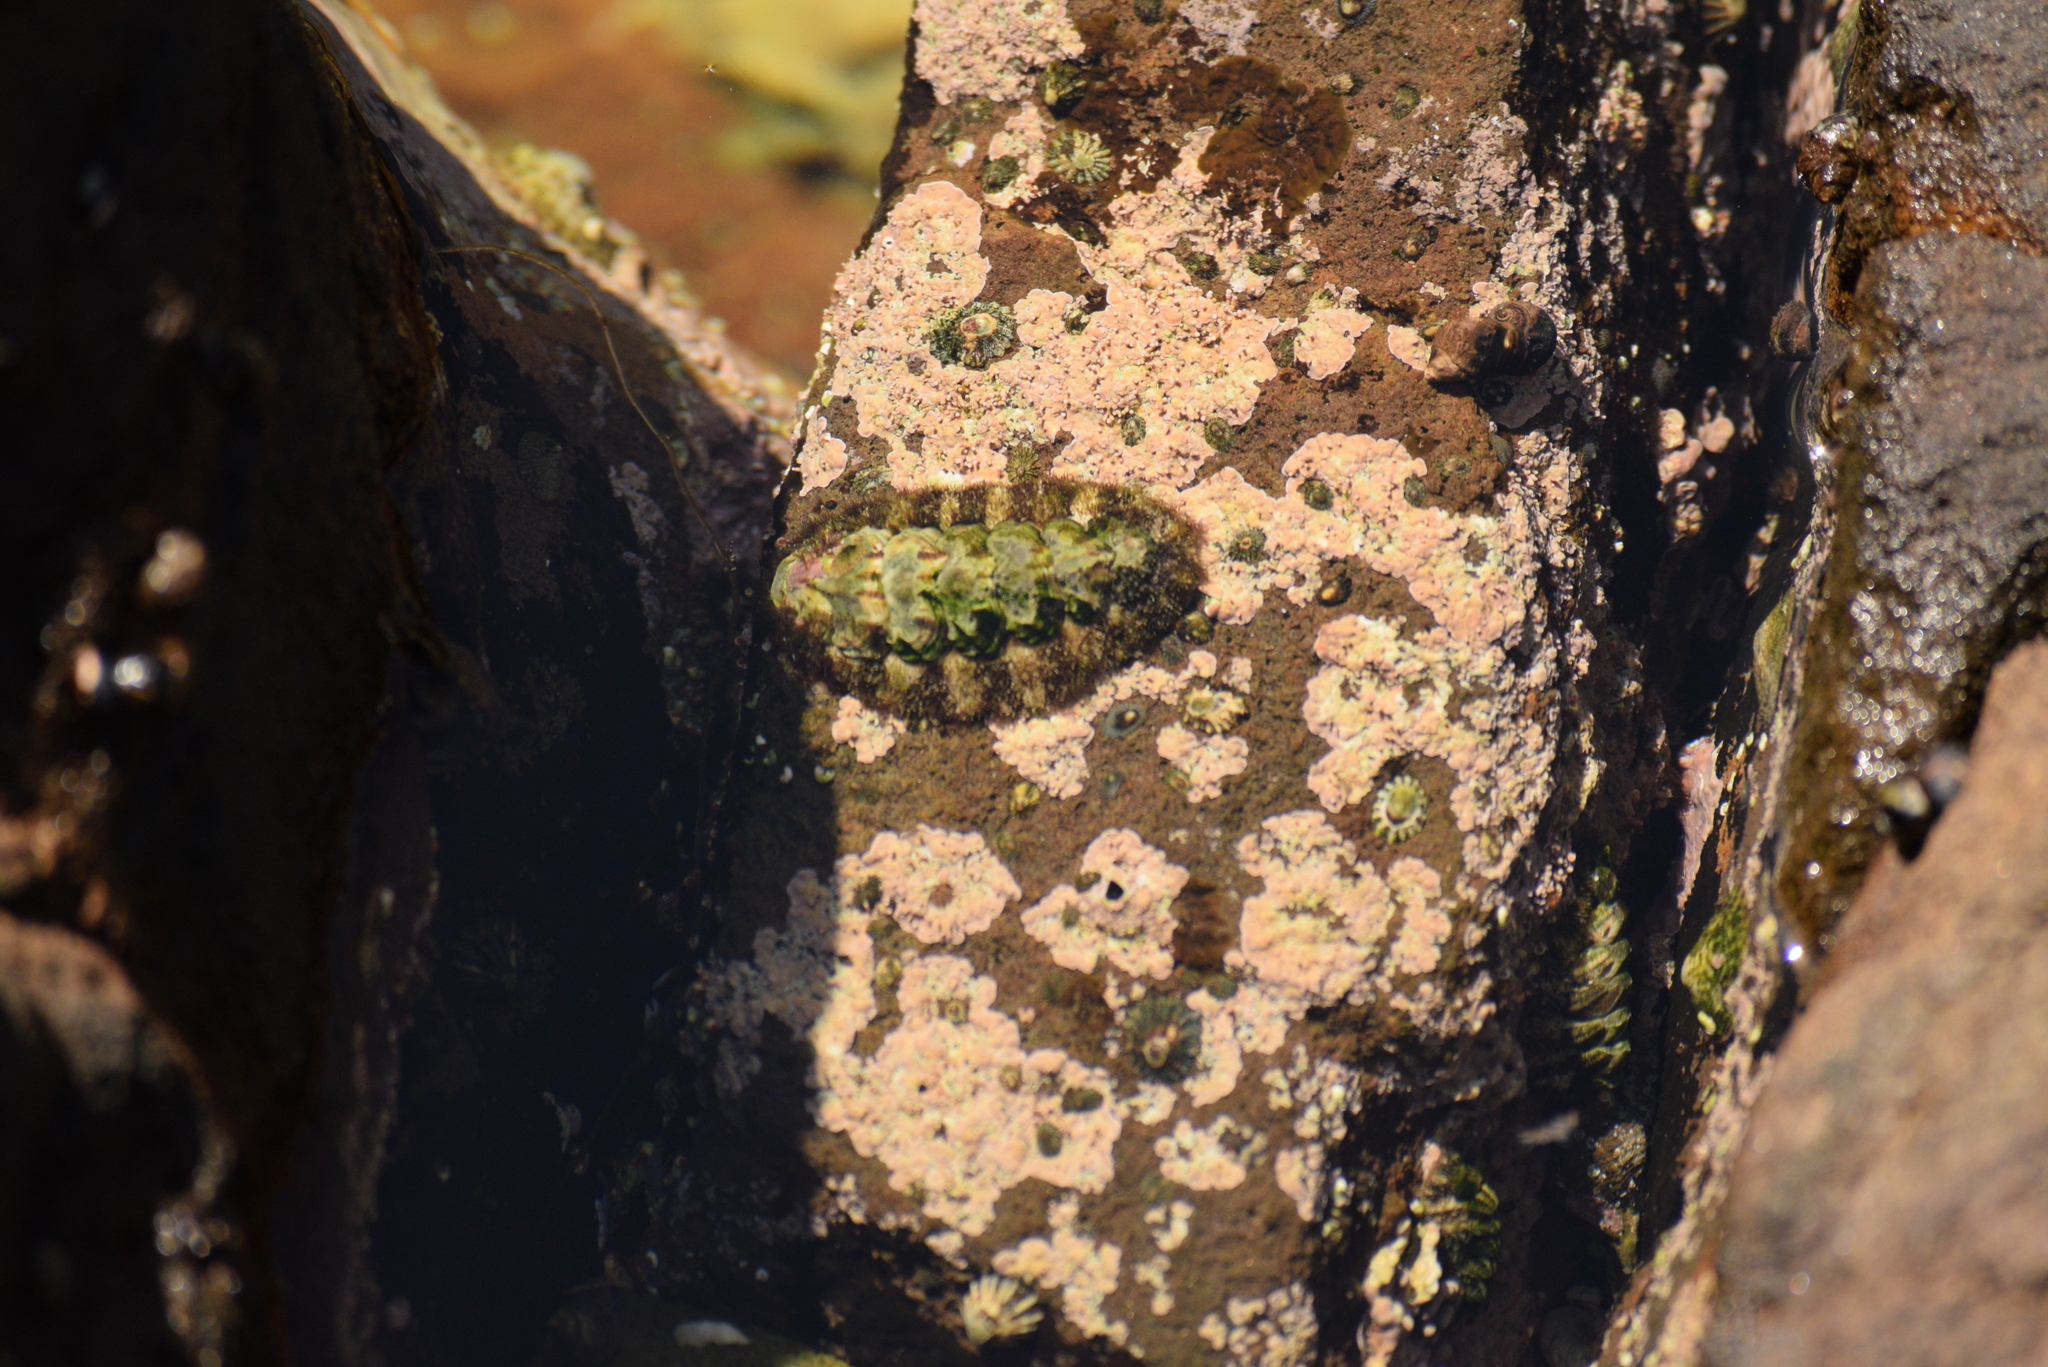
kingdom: Animalia
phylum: Mollusca
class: Polyplacophora
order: Chitonida
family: Tonicellidae
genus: Nuttallina
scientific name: Nuttallina californica
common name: California nuttall chiton
